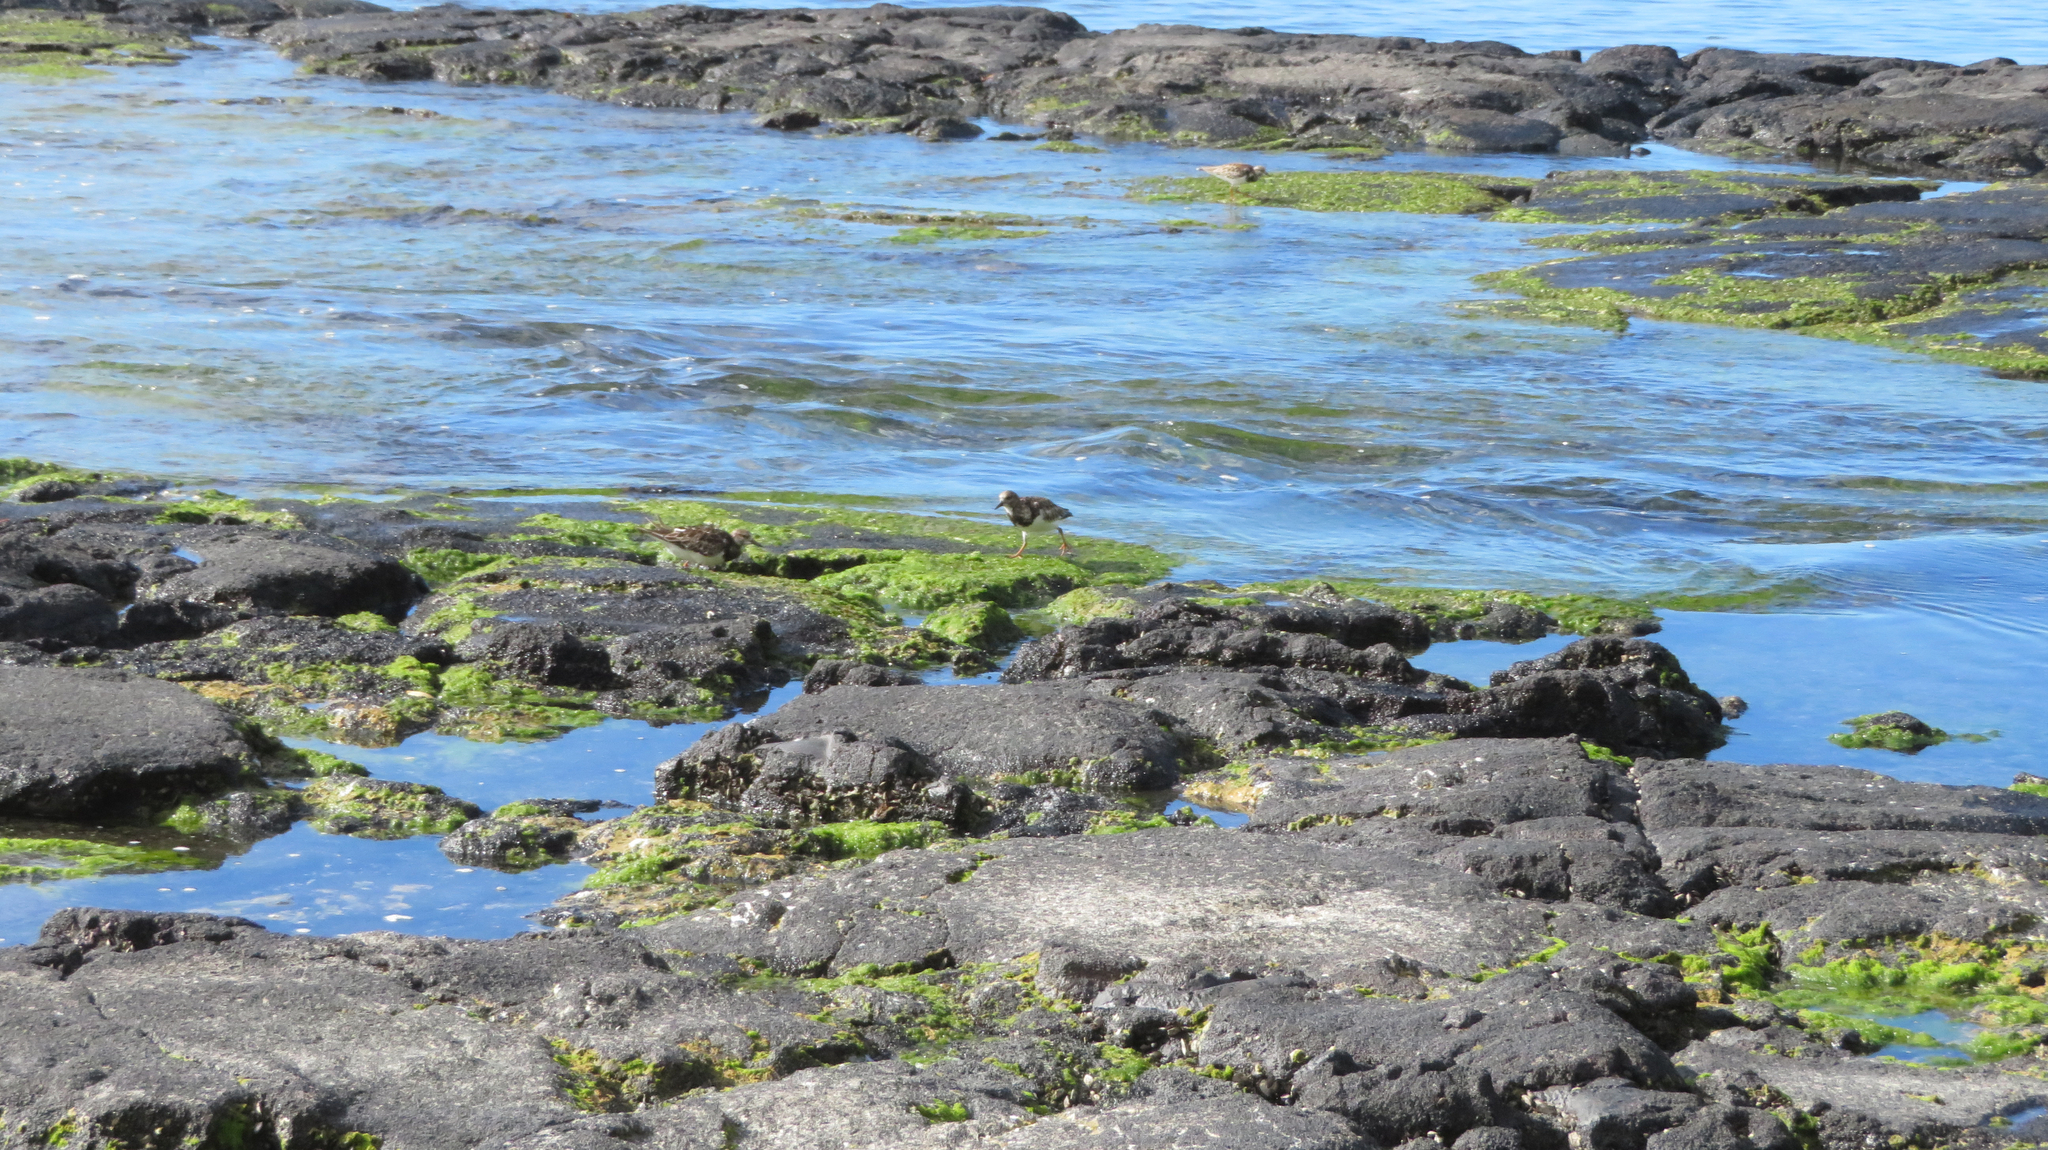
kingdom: Animalia
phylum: Chordata
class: Aves
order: Charadriiformes
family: Scolopacidae
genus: Arenaria
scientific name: Arenaria interpres
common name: Ruddy turnstone
